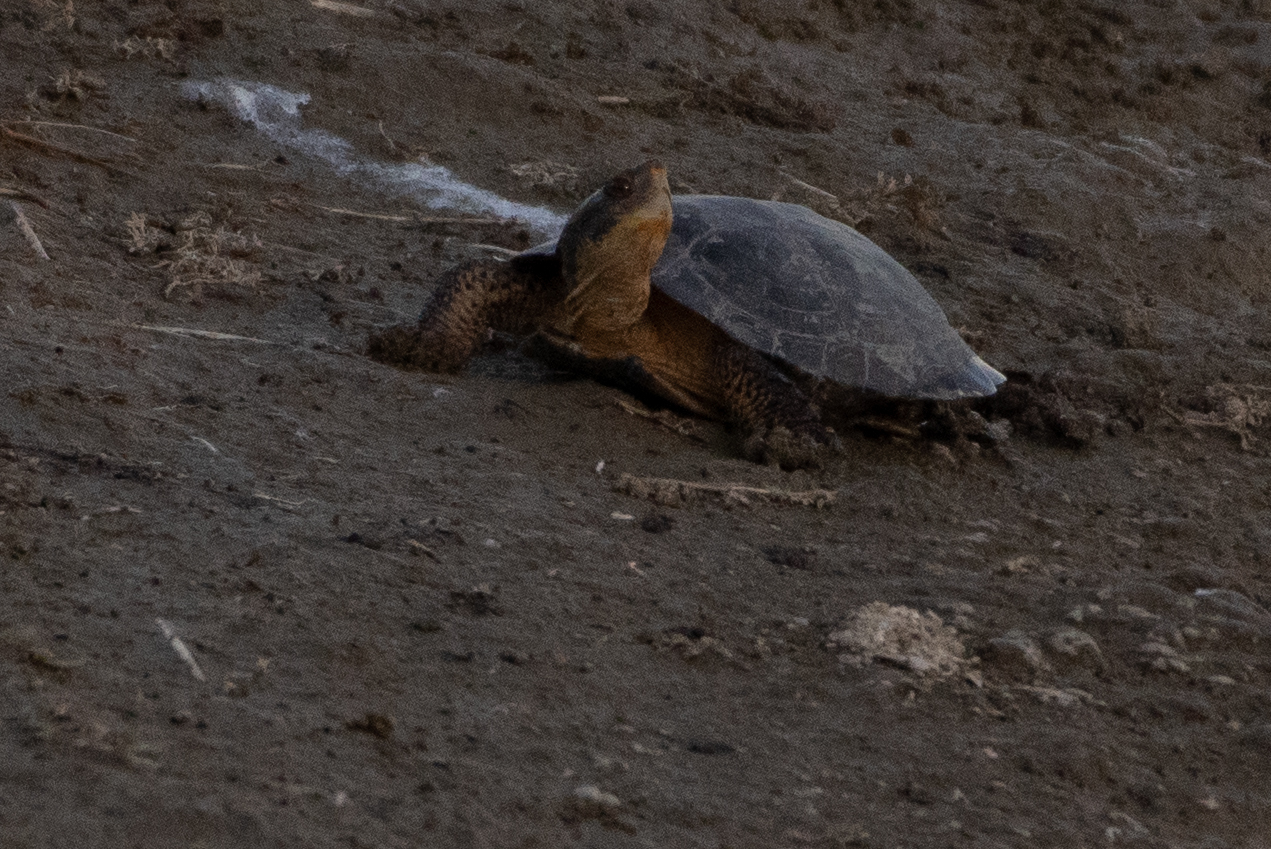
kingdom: Animalia
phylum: Chordata
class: Testudines
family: Emydidae
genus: Actinemys
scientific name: Actinemys marmorata
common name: Western pond turtle
